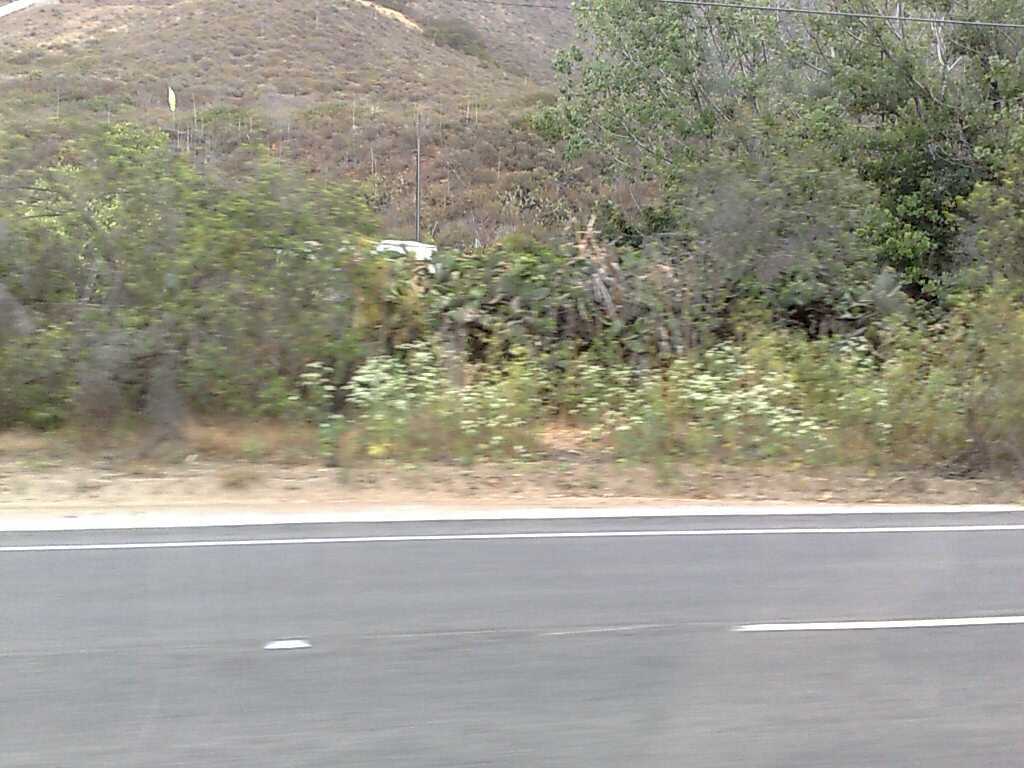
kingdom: Plantae
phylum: Tracheophyta
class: Magnoliopsida
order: Apiales
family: Apiaceae
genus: Conium
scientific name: Conium maculatum
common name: Hemlock
